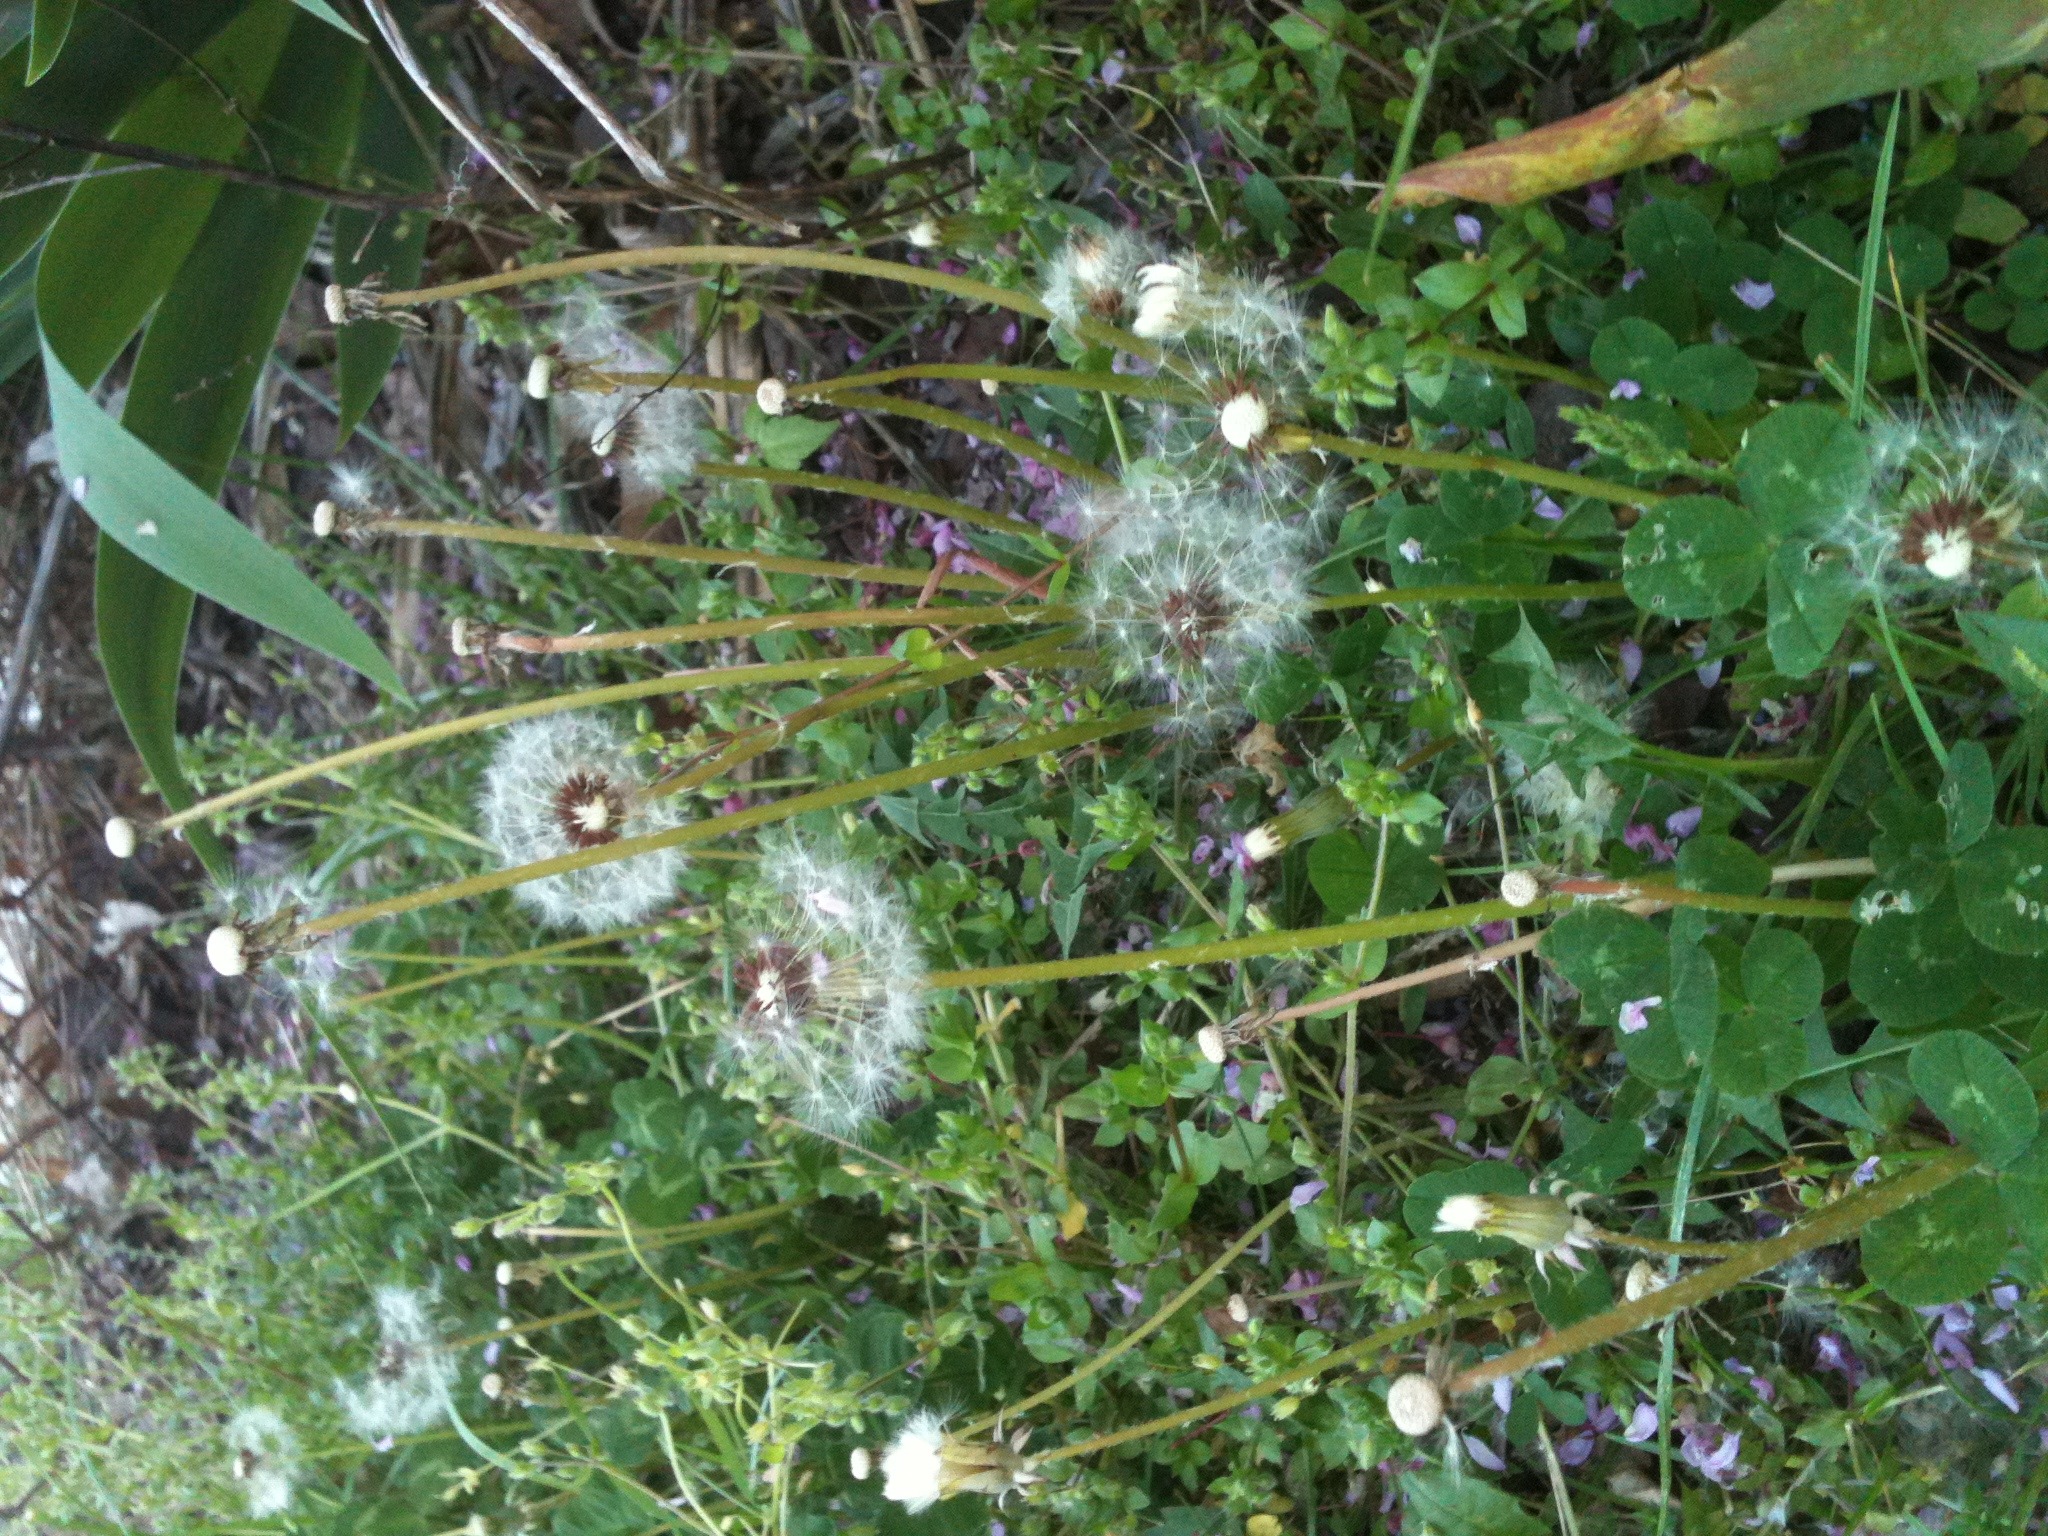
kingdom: Plantae
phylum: Tracheophyta
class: Magnoliopsida
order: Asterales
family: Asteraceae
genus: Taraxacum
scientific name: Taraxacum
